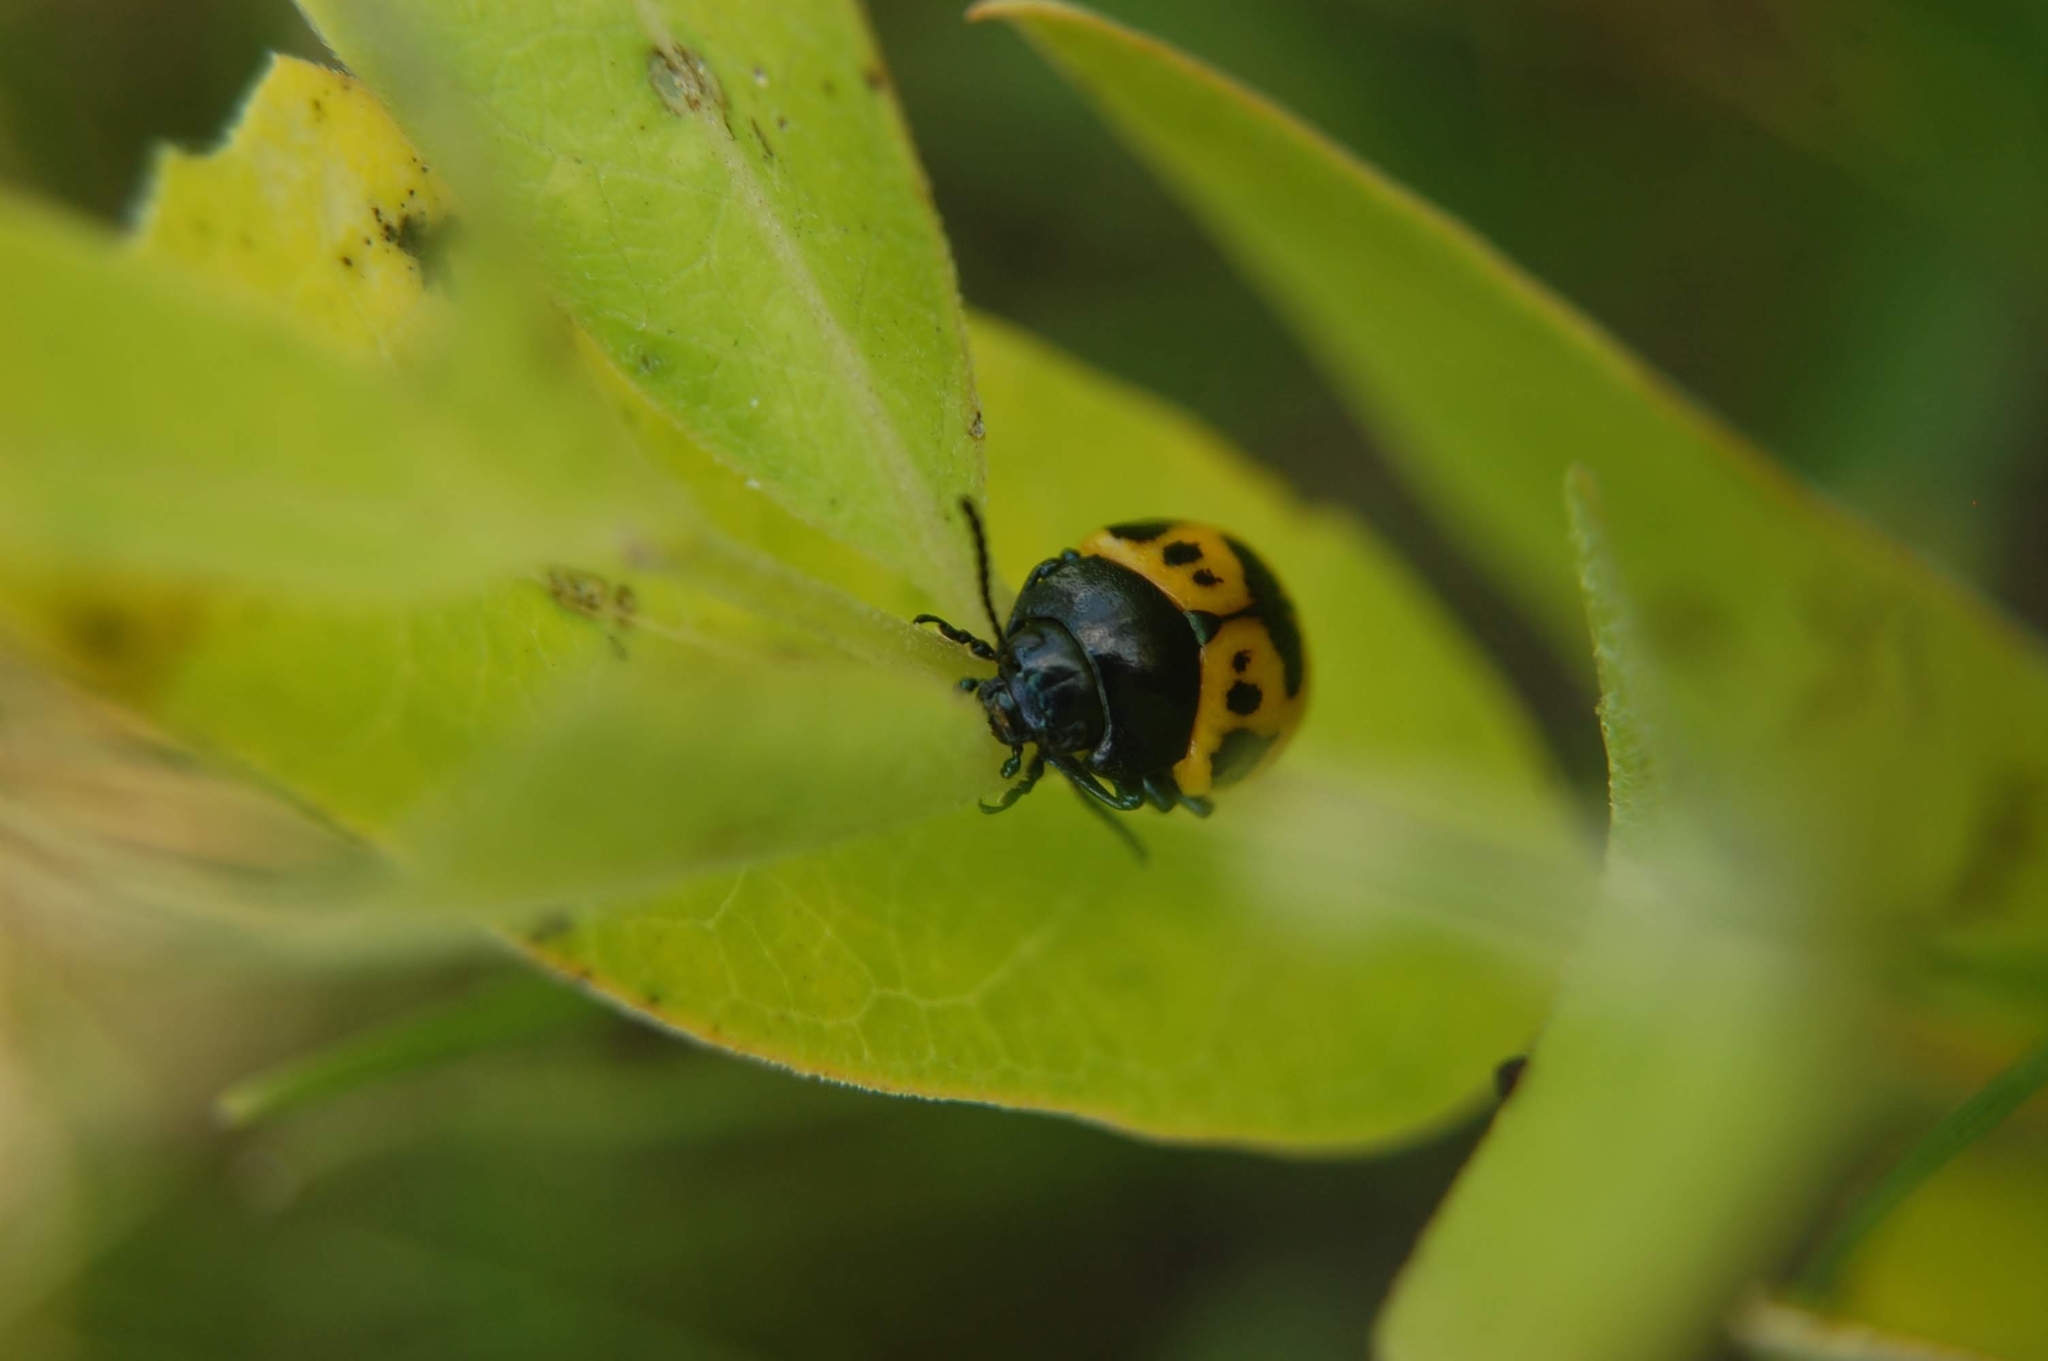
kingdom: Animalia
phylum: Arthropoda
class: Insecta
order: Coleoptera
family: Chrysomelidae
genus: Labidomera
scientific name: Labidomera clivicollis
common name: Swamp milkweed leaf beetle
